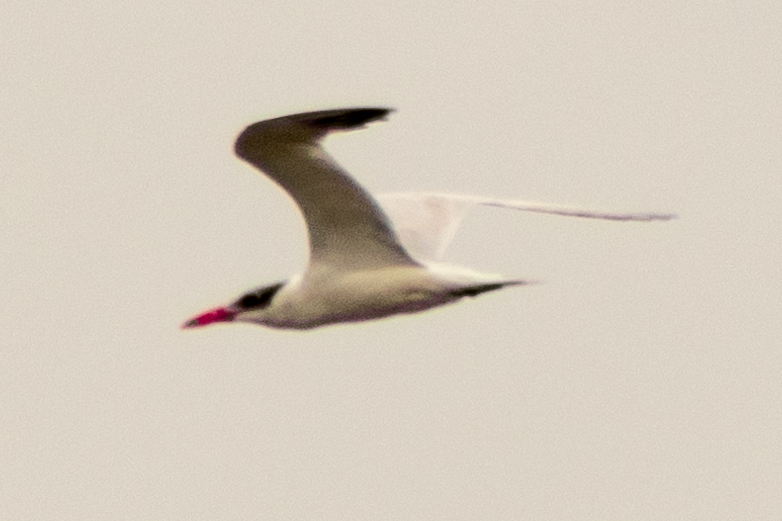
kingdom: Animalia
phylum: Chordata
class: Aves
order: Charadriiformes
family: Laridae
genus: Hydroprogne
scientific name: Hydroprogne caspia
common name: Caspian tern
